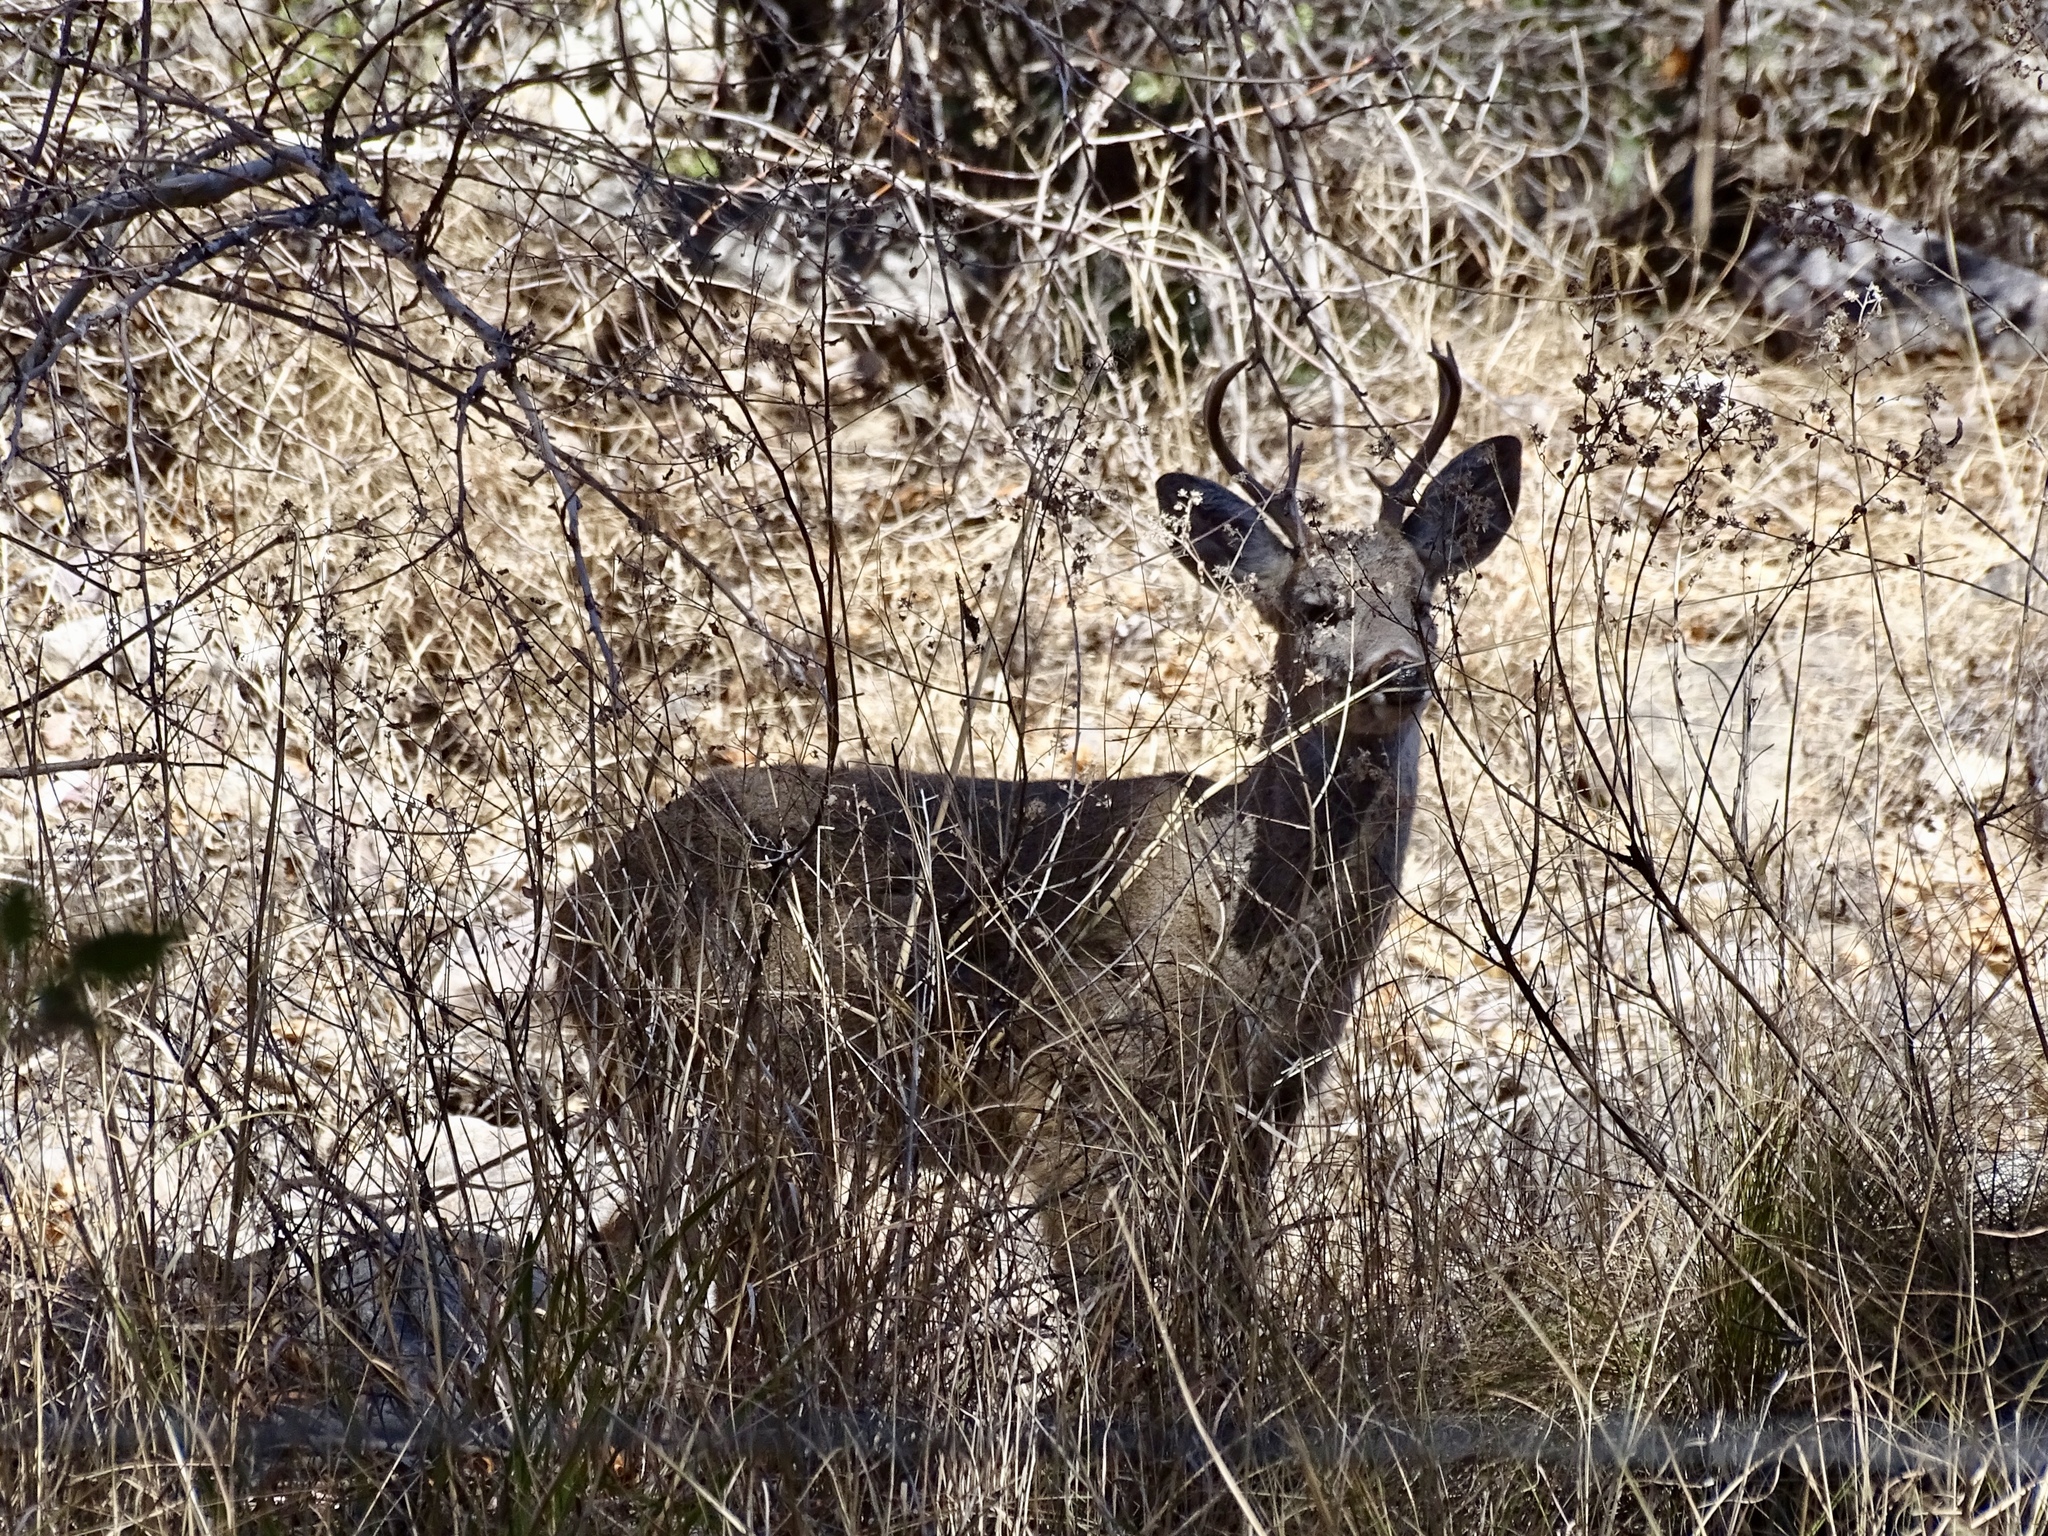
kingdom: Animalia
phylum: Chordata
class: Mammalia
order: Artiodactyla
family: Cervidae
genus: Odocoileus
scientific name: Odocoileus virginianus
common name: White-tailed deer
